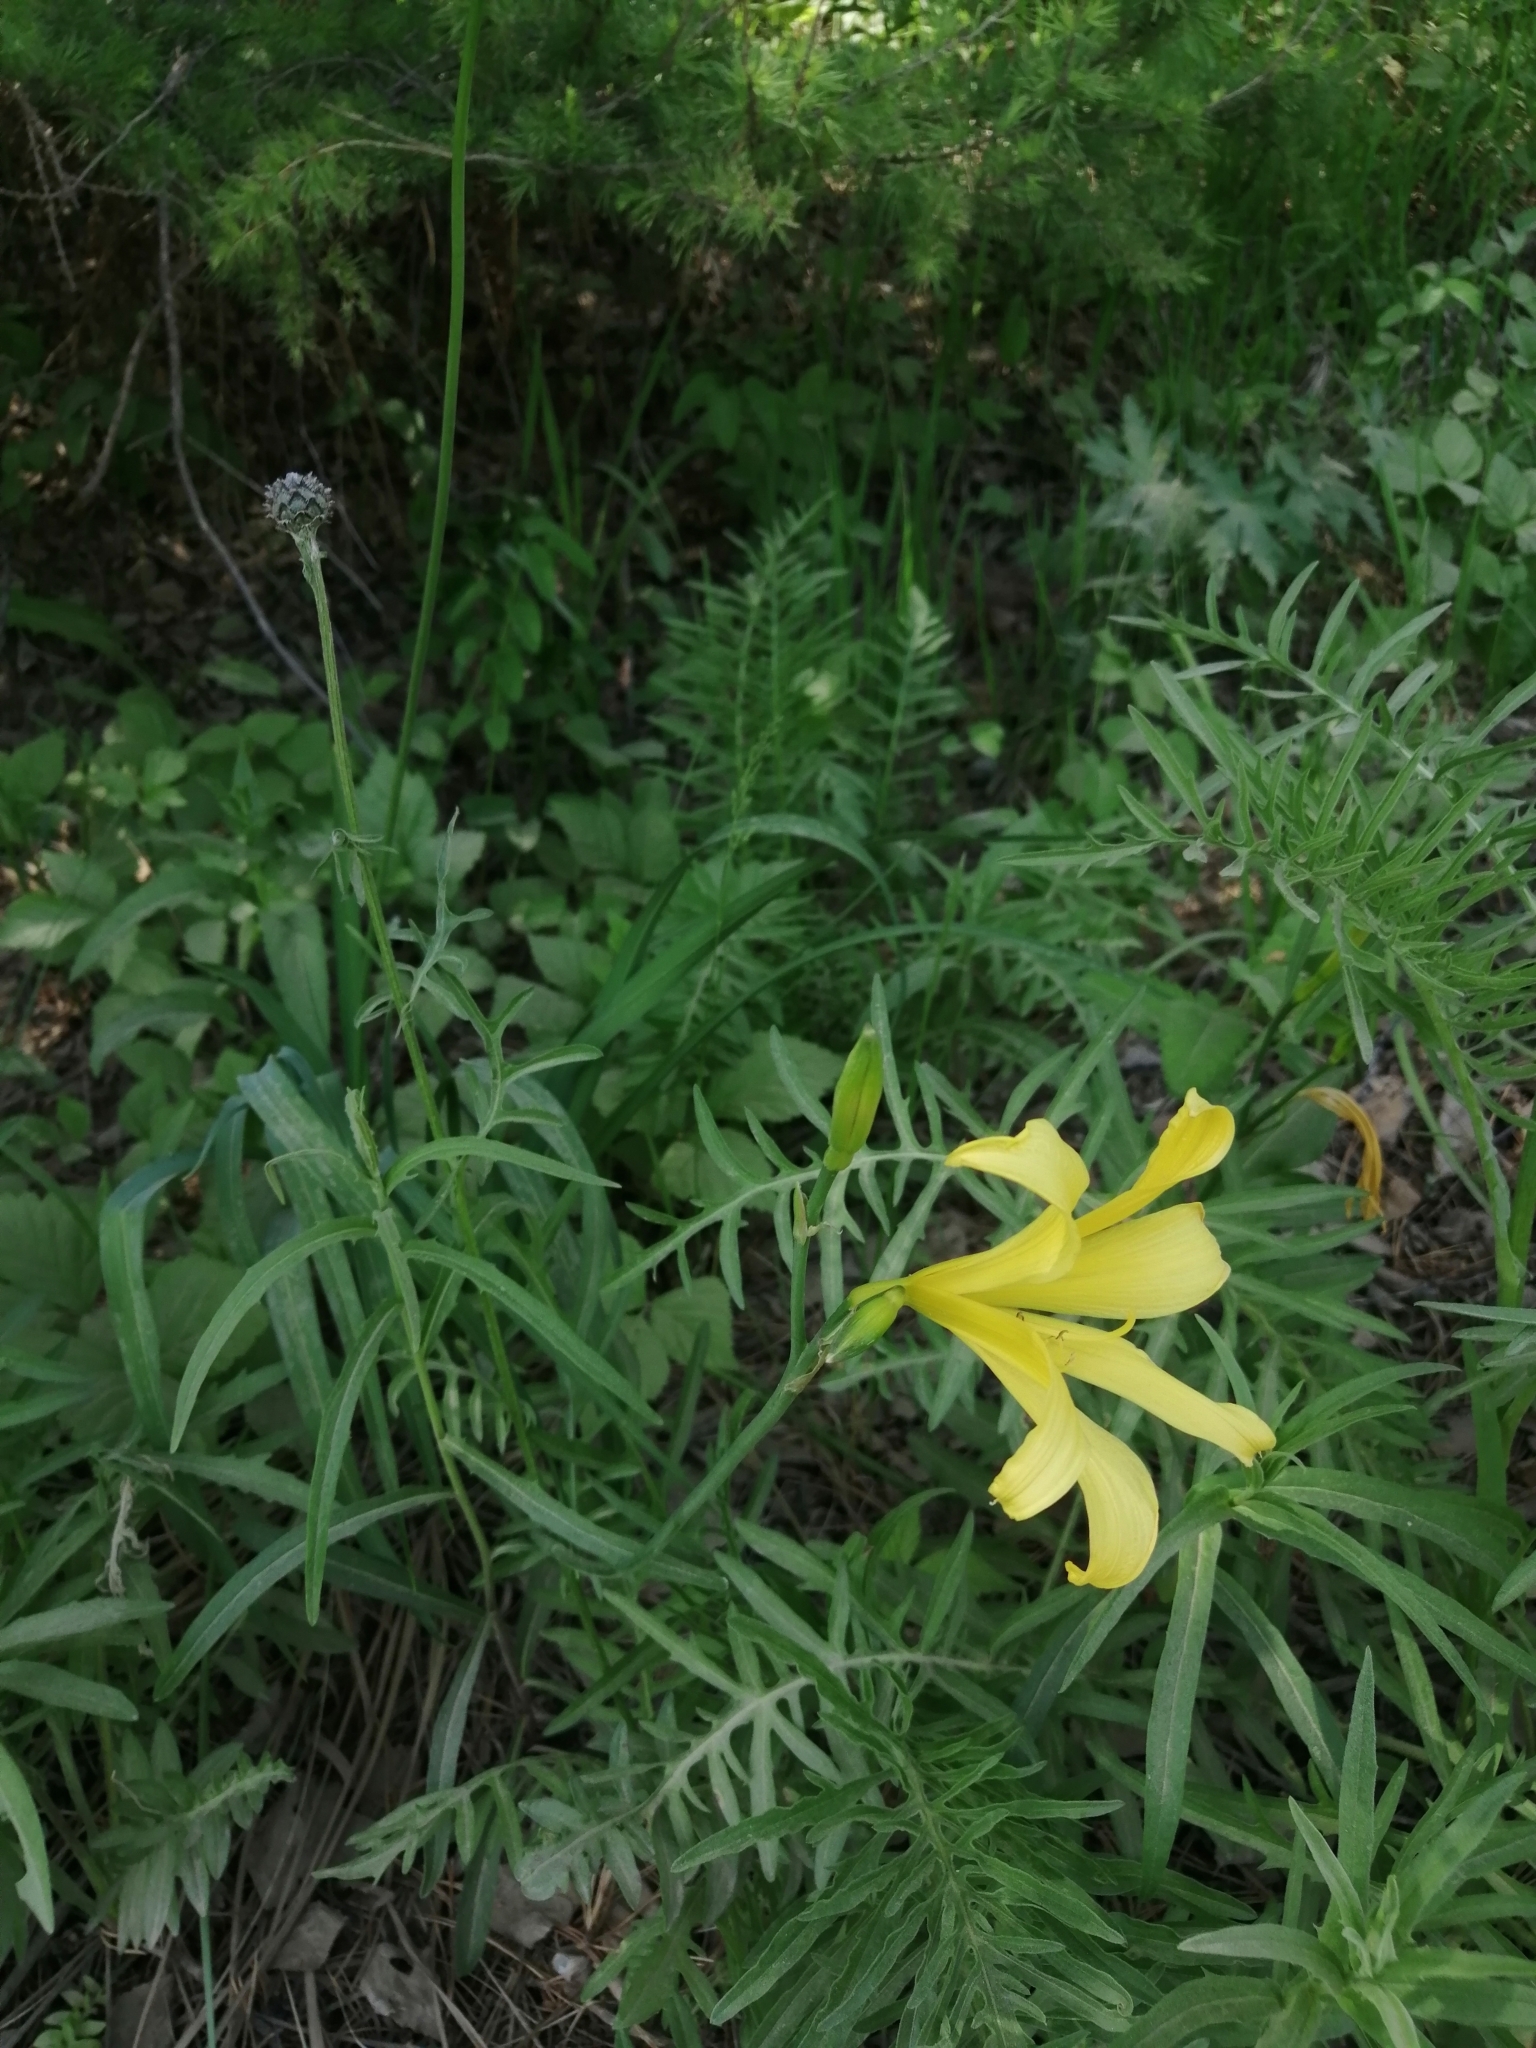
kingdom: Plantae
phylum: Tracheophyta
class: Liliopsida
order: Asparagales
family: Asphodelaceae
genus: Hemerocallis
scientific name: Hemerocallis minor
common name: Small daylily
